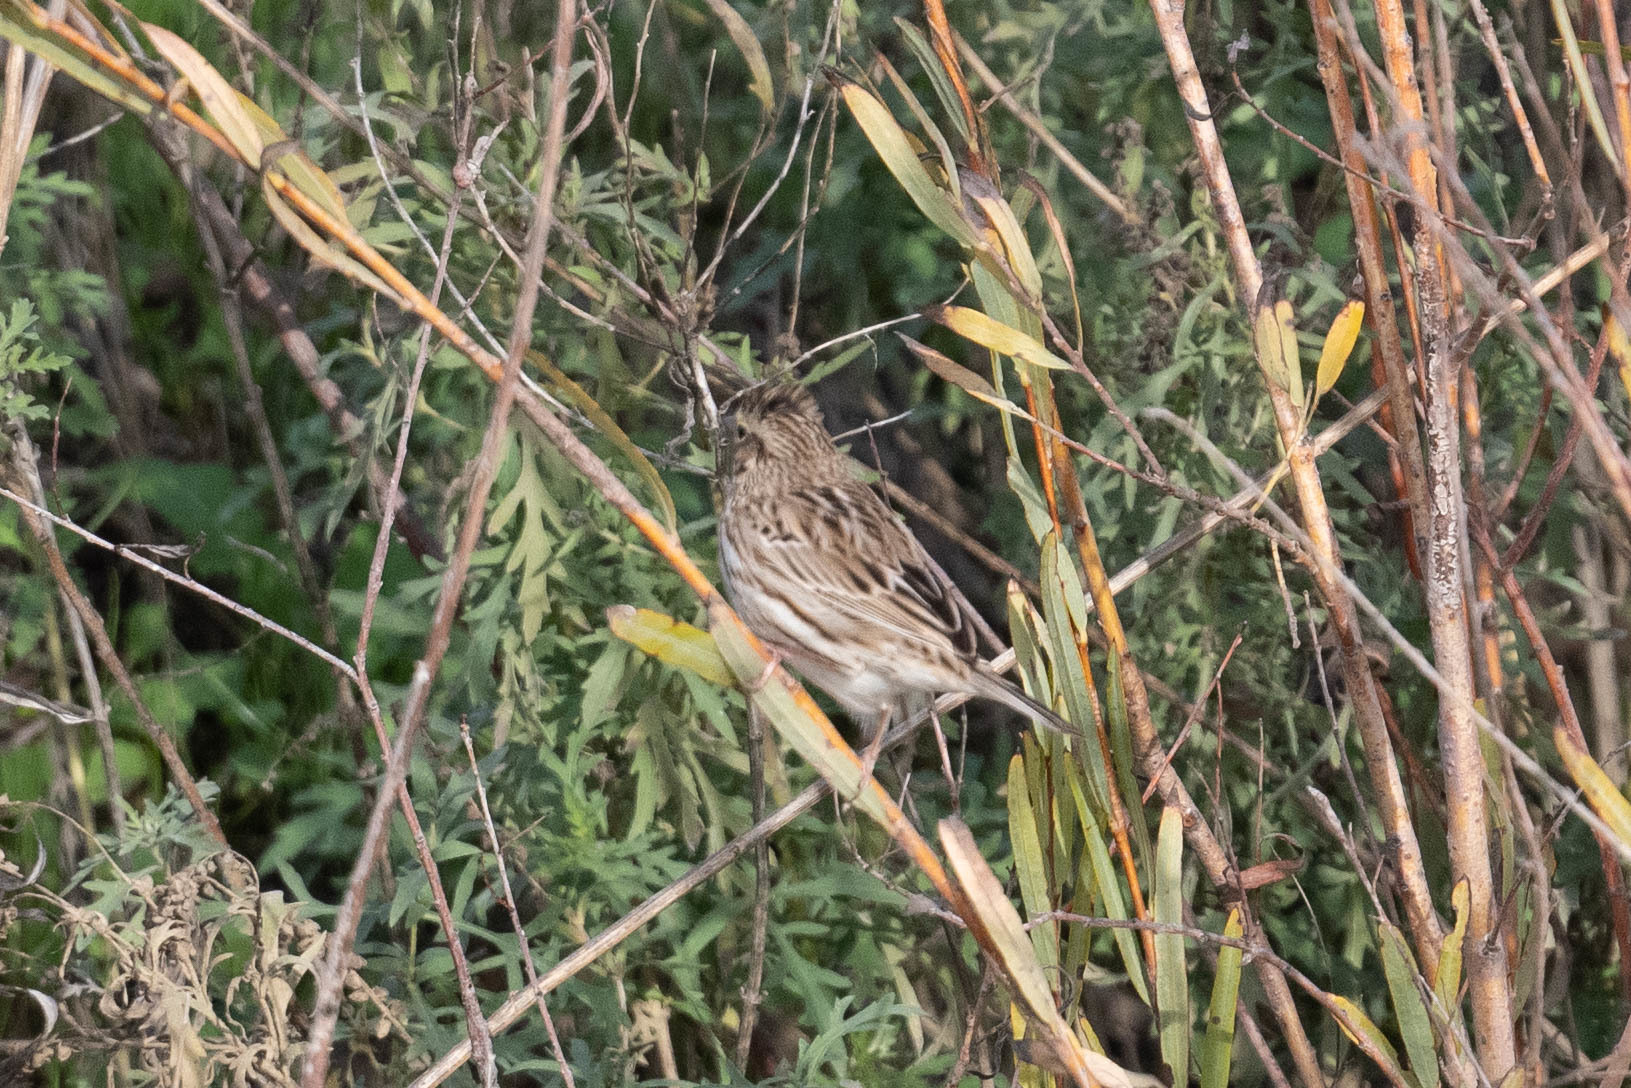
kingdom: Animalia
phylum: Chordata
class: Aves
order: Passeriformes
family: Passerellidae
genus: Passerculus
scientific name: Passerculus sandwichensis
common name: Savannah sparrow
